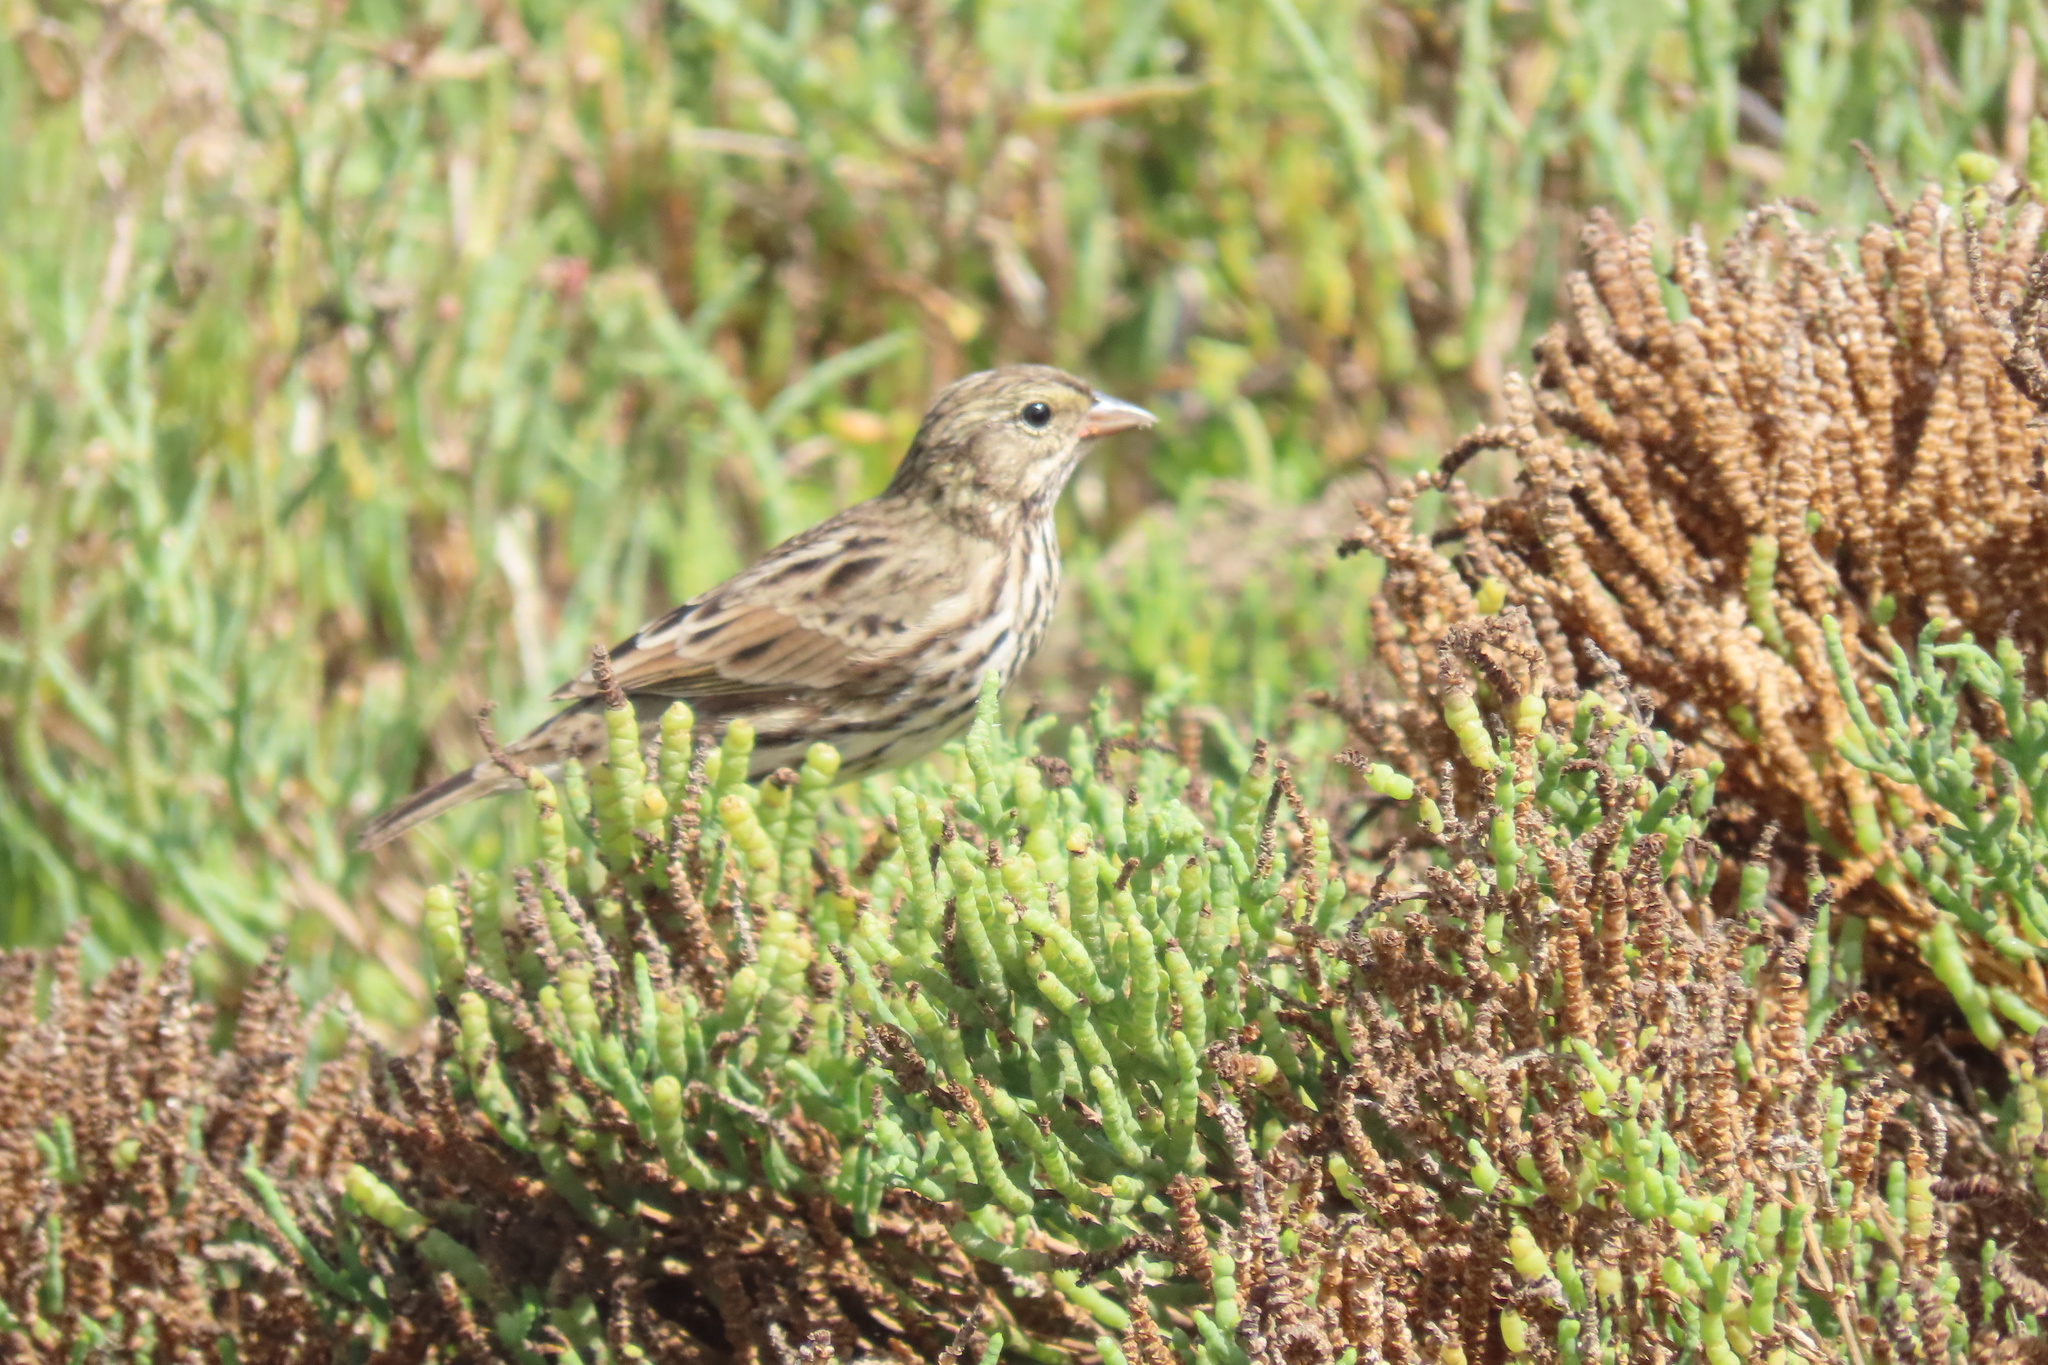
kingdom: Animalia
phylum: Chordata
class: Aves
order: Passeriformes
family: Passerellidae
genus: Passerculus
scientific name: Passerculus sandwichensis
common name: Savannah sparrow
